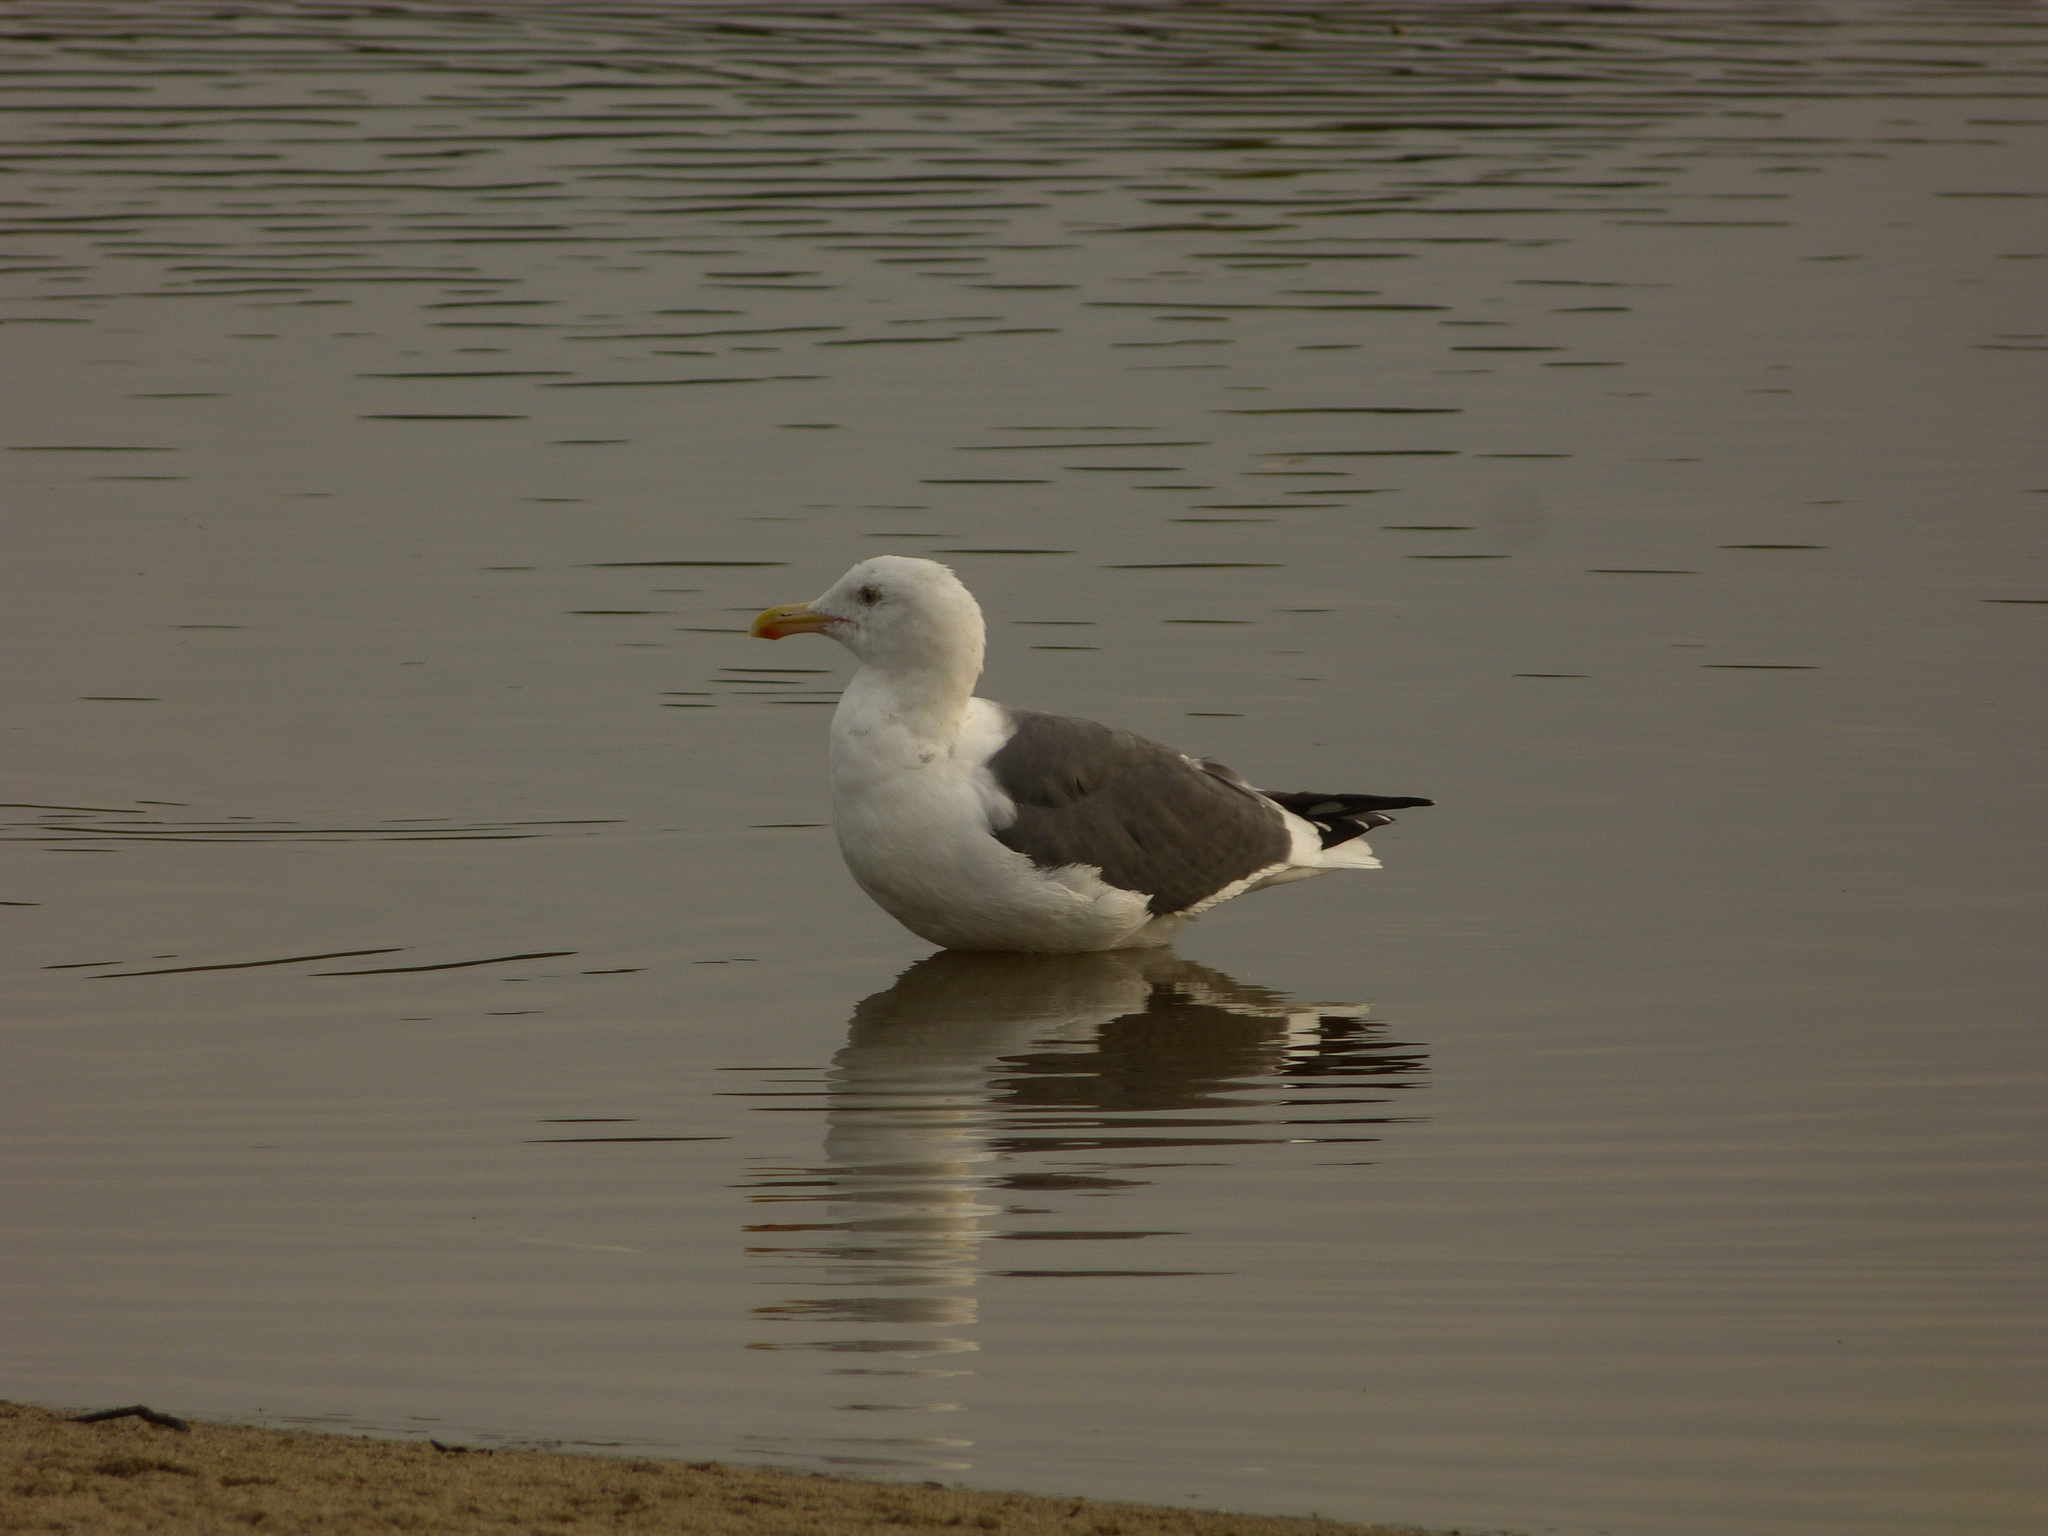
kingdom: Animalia
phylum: Chordata
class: Aves
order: Charadriiformes
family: Laridae
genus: Larus
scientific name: Larus occidentalis
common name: Western gull
